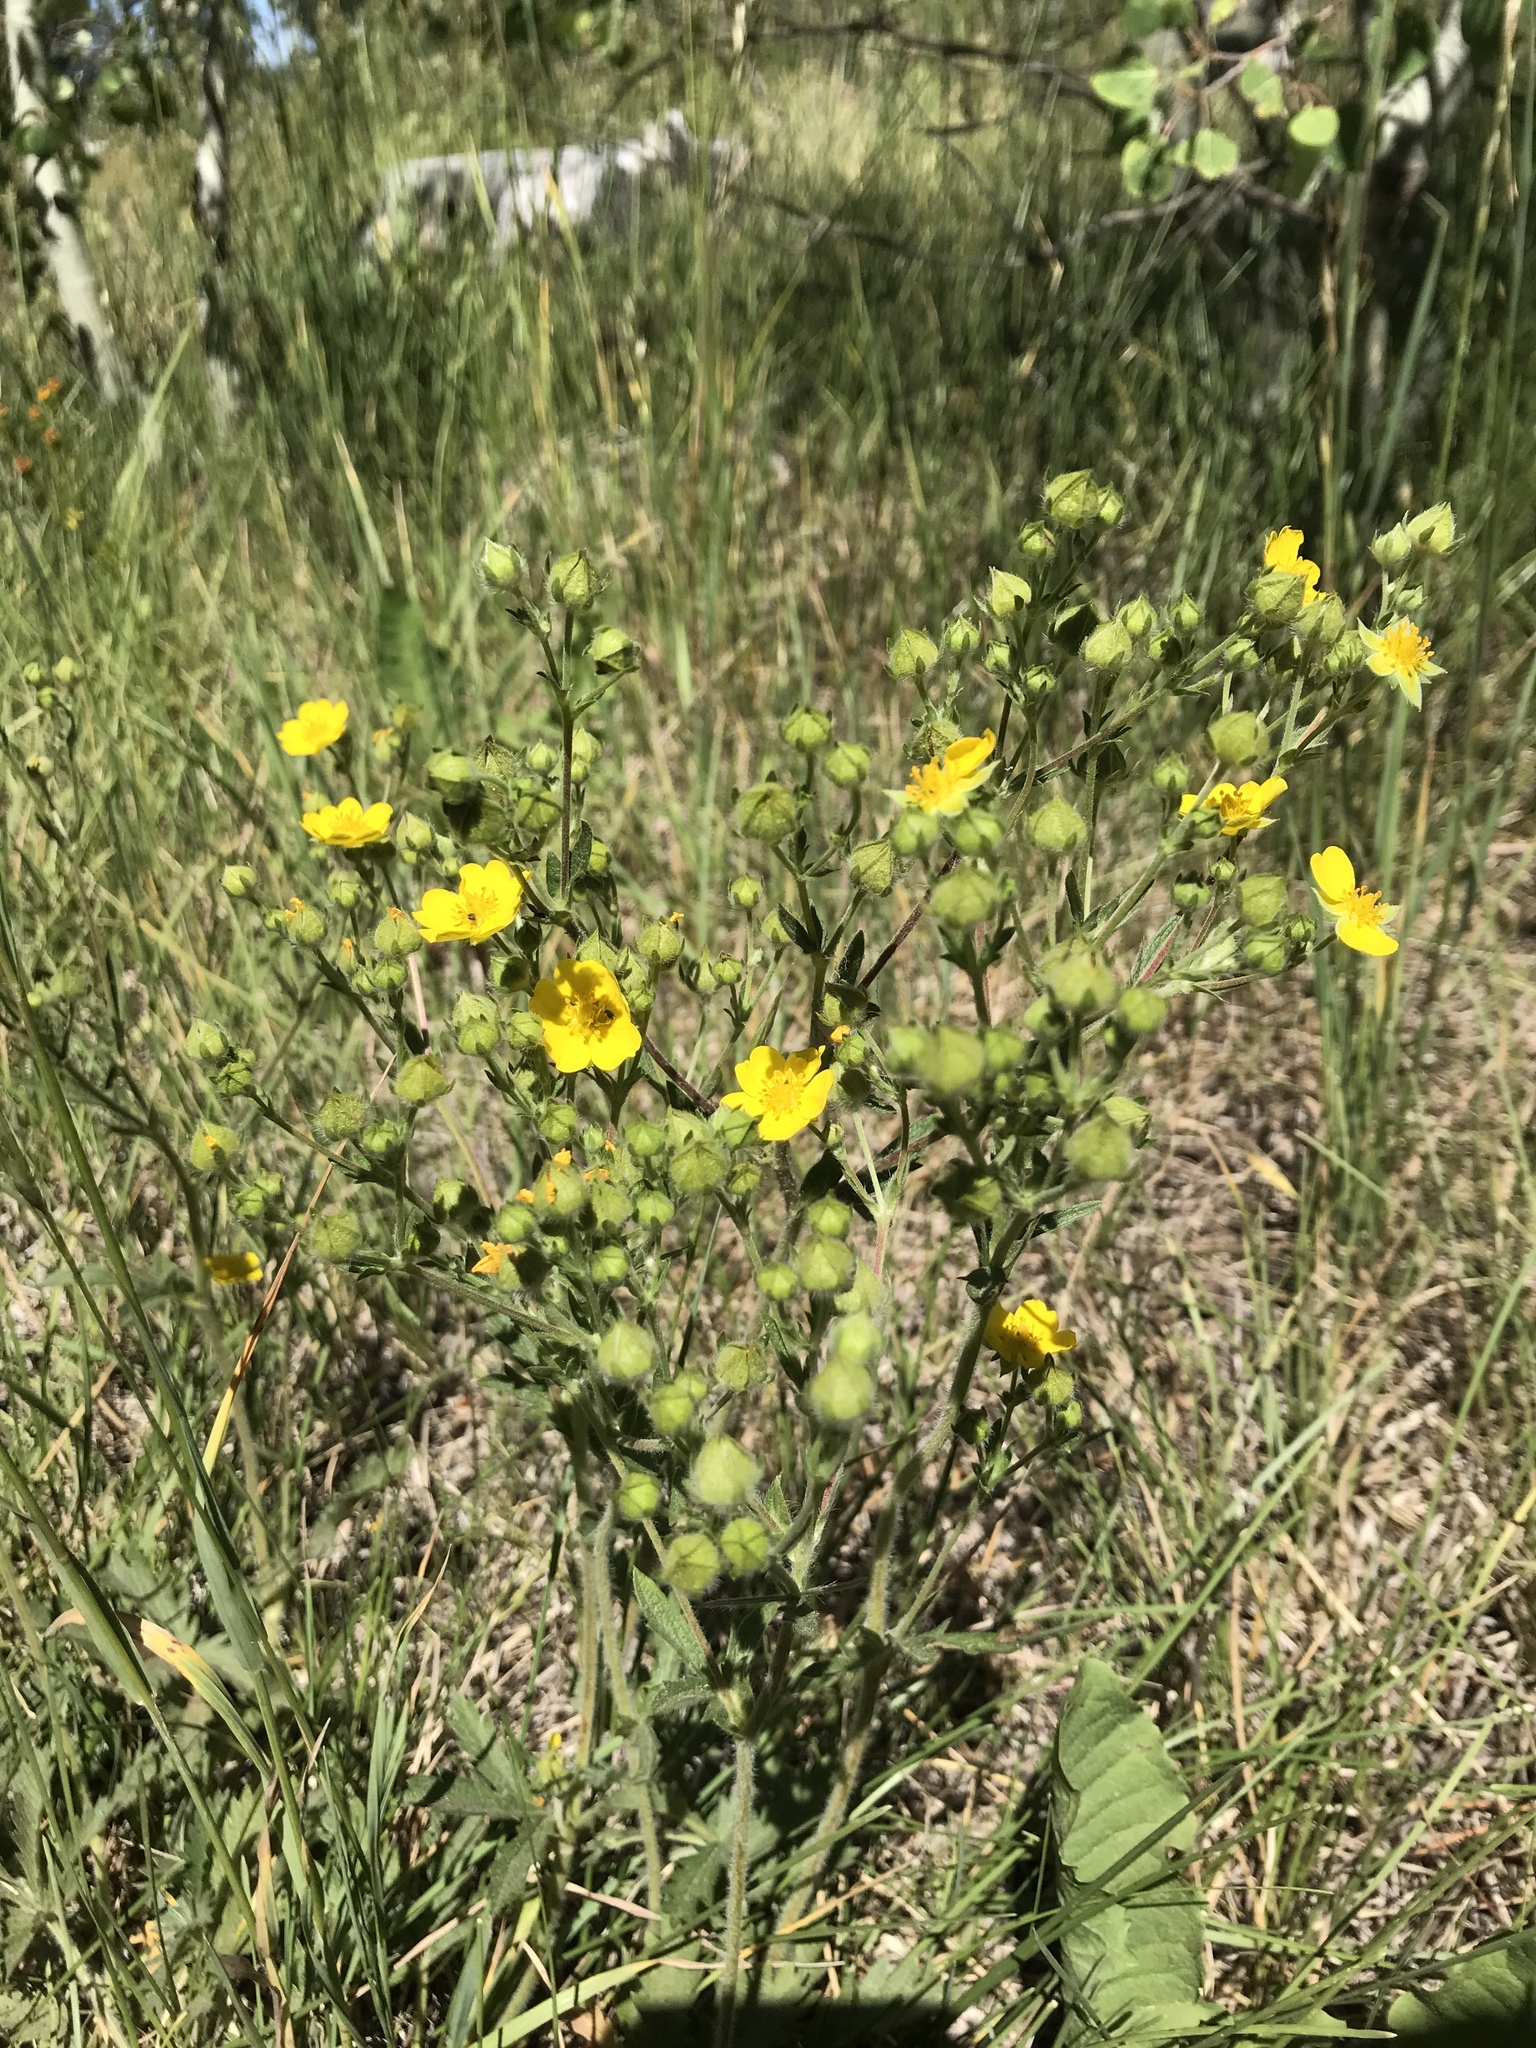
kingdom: Plantae
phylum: Tracheophyta
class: Magnoliopsida
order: Rosales
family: Rosaceae
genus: Potentilla
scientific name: Potentilla gracilis
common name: Graceful cinquefoil
